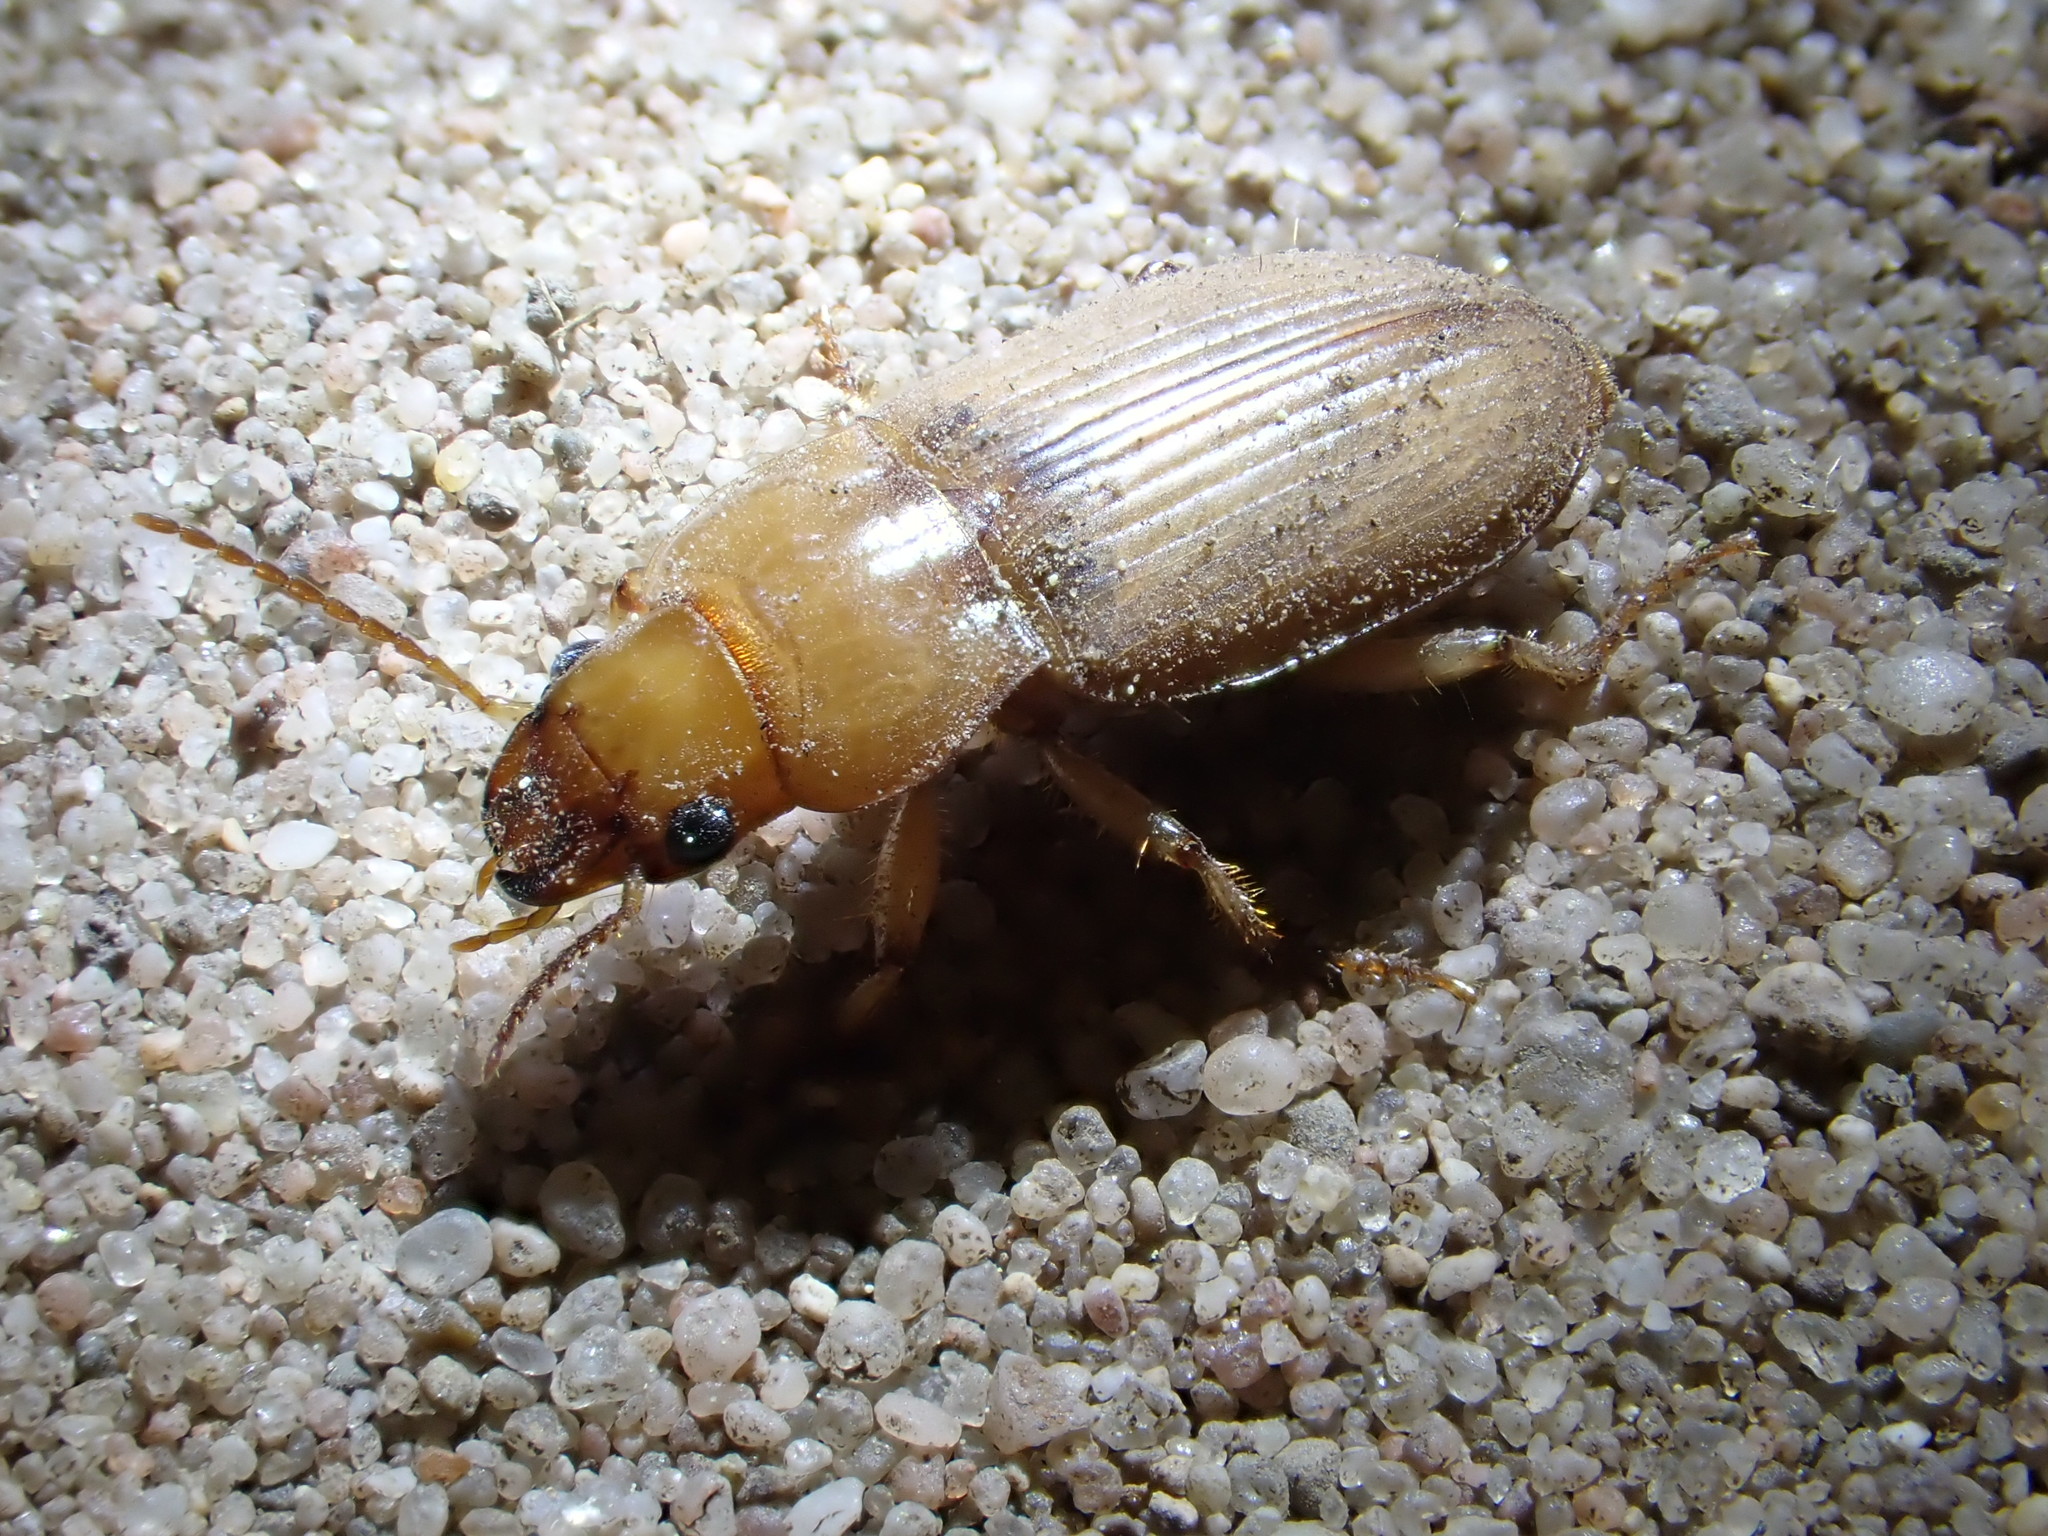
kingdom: Animalia
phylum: Arthropoda
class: Insecta
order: Coleoptera
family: Carabidae
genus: Harpalus
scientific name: Harpalus flavescens
